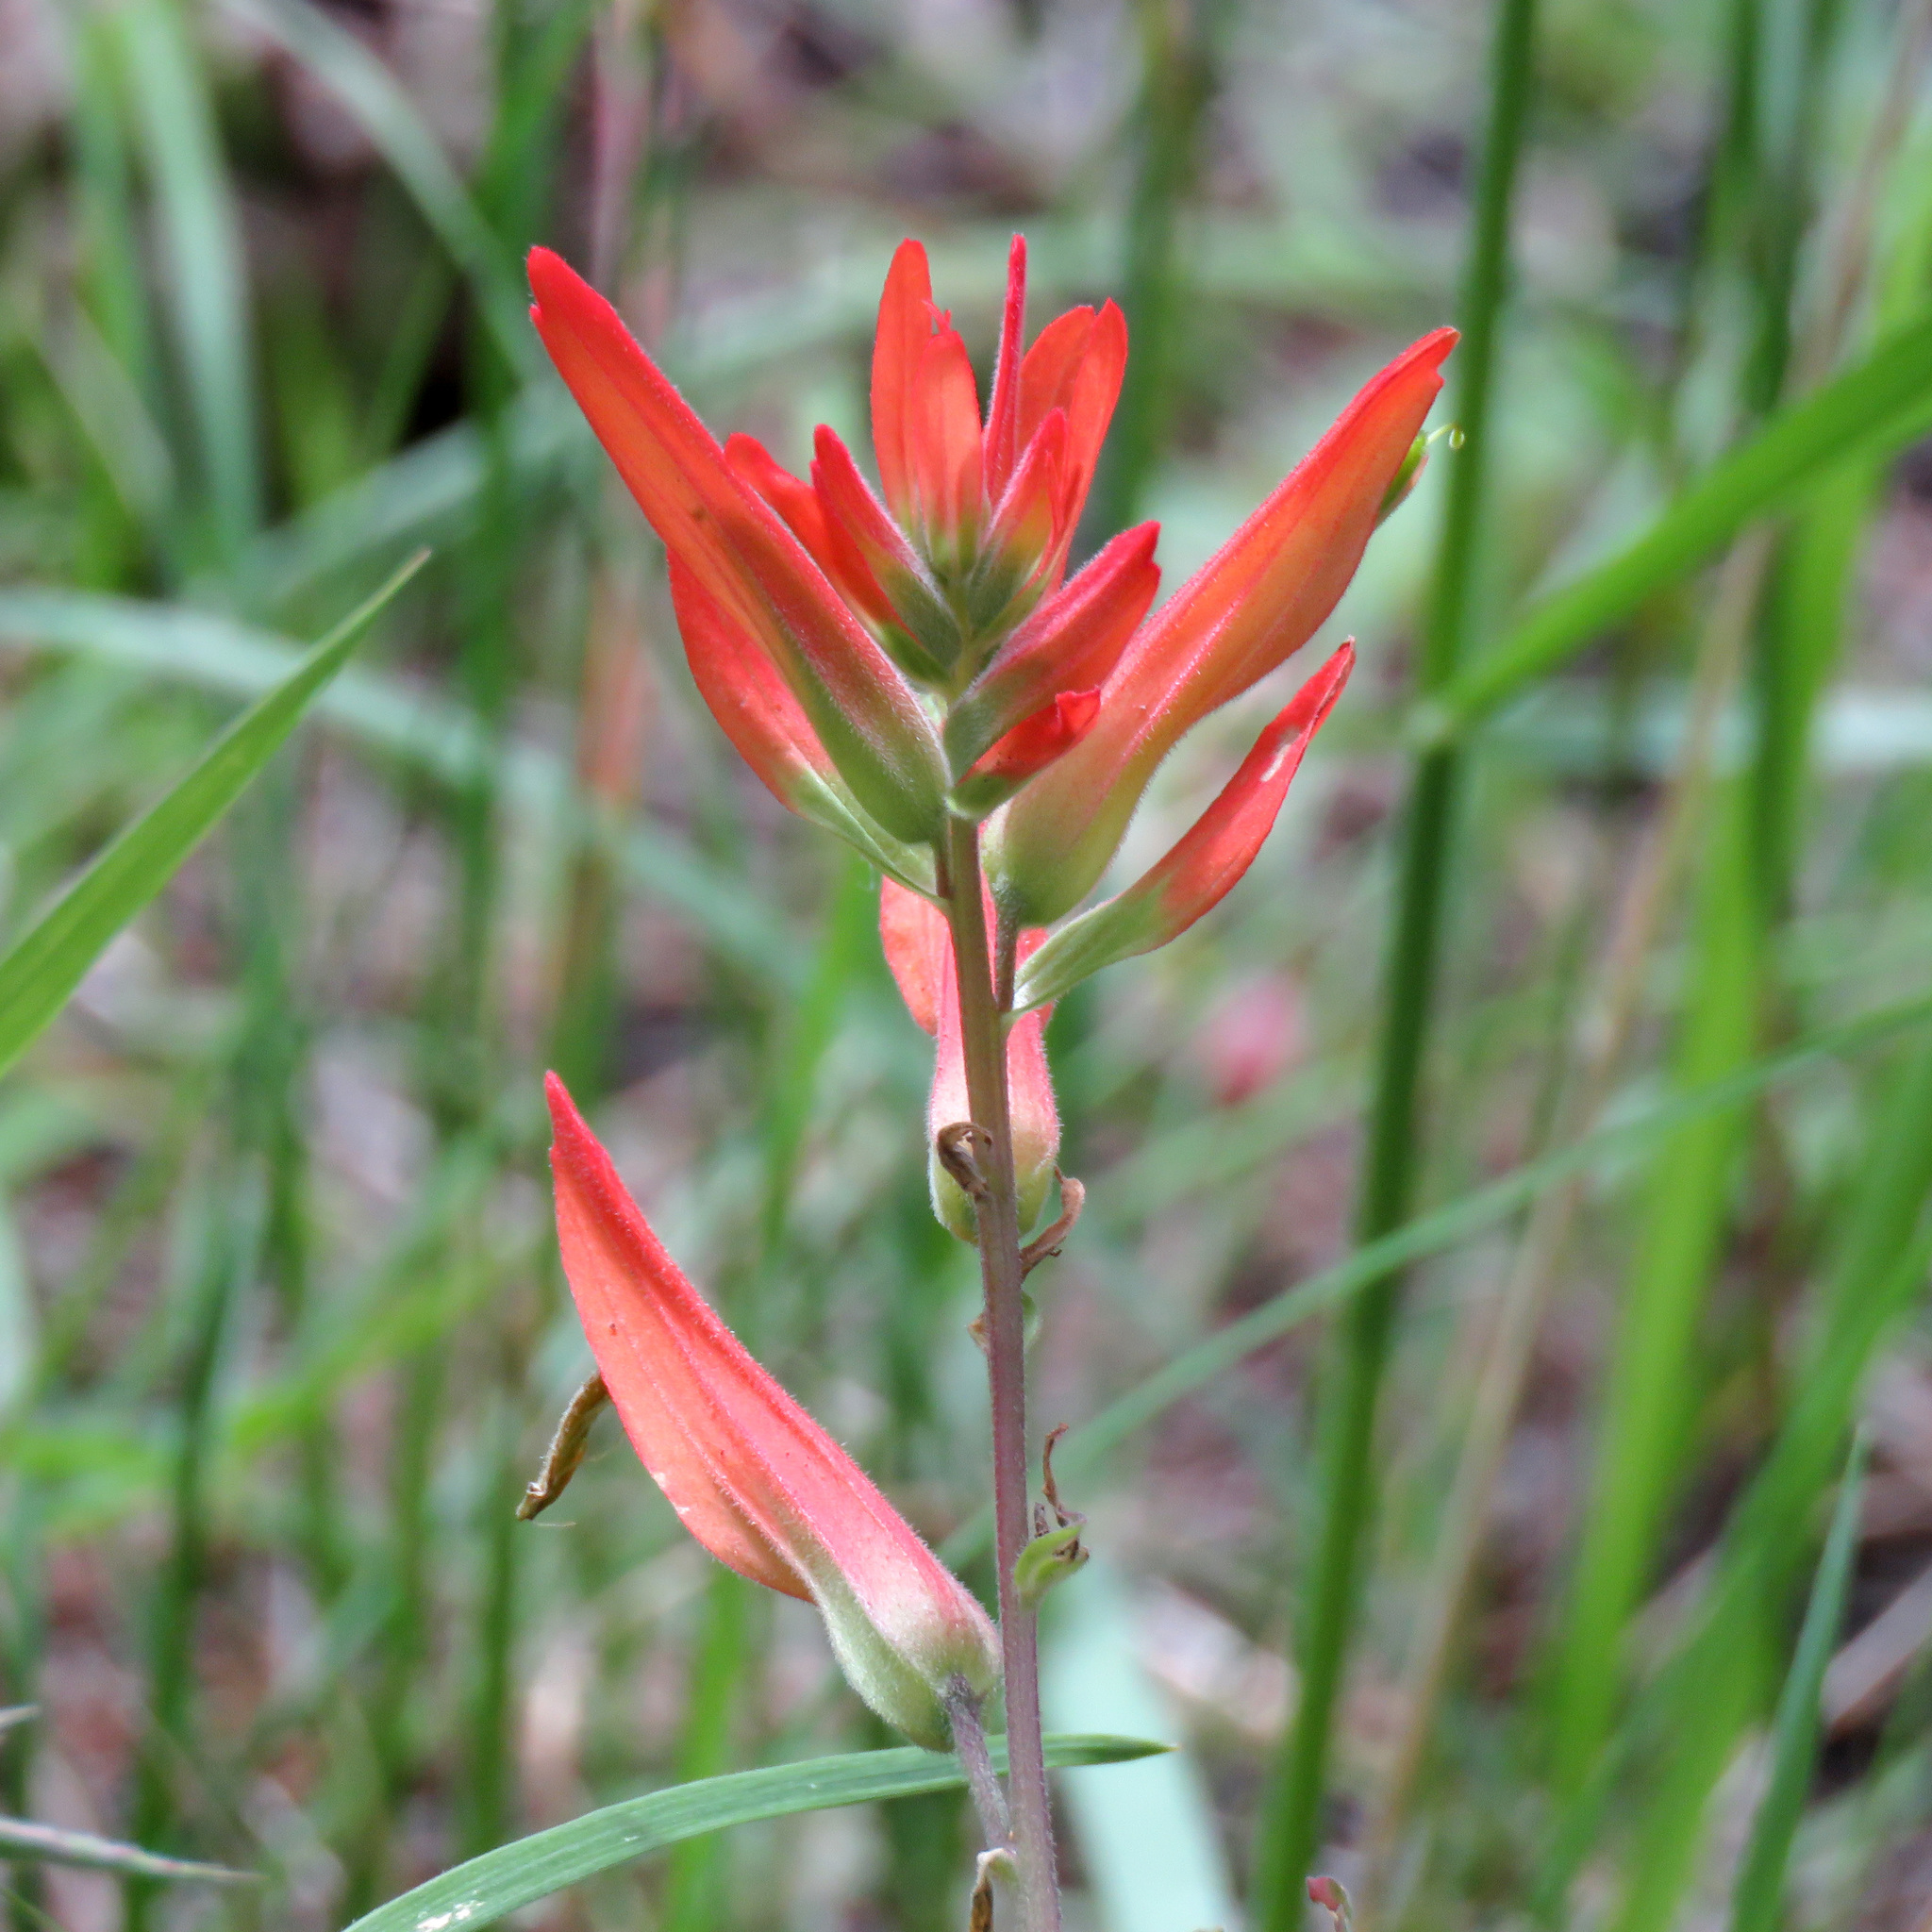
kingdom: Plantae
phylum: Tracheophyta
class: Magnoliopsida
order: Lamiales
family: Orobanchaceae
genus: Castilleja
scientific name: Castilleja patriotica
